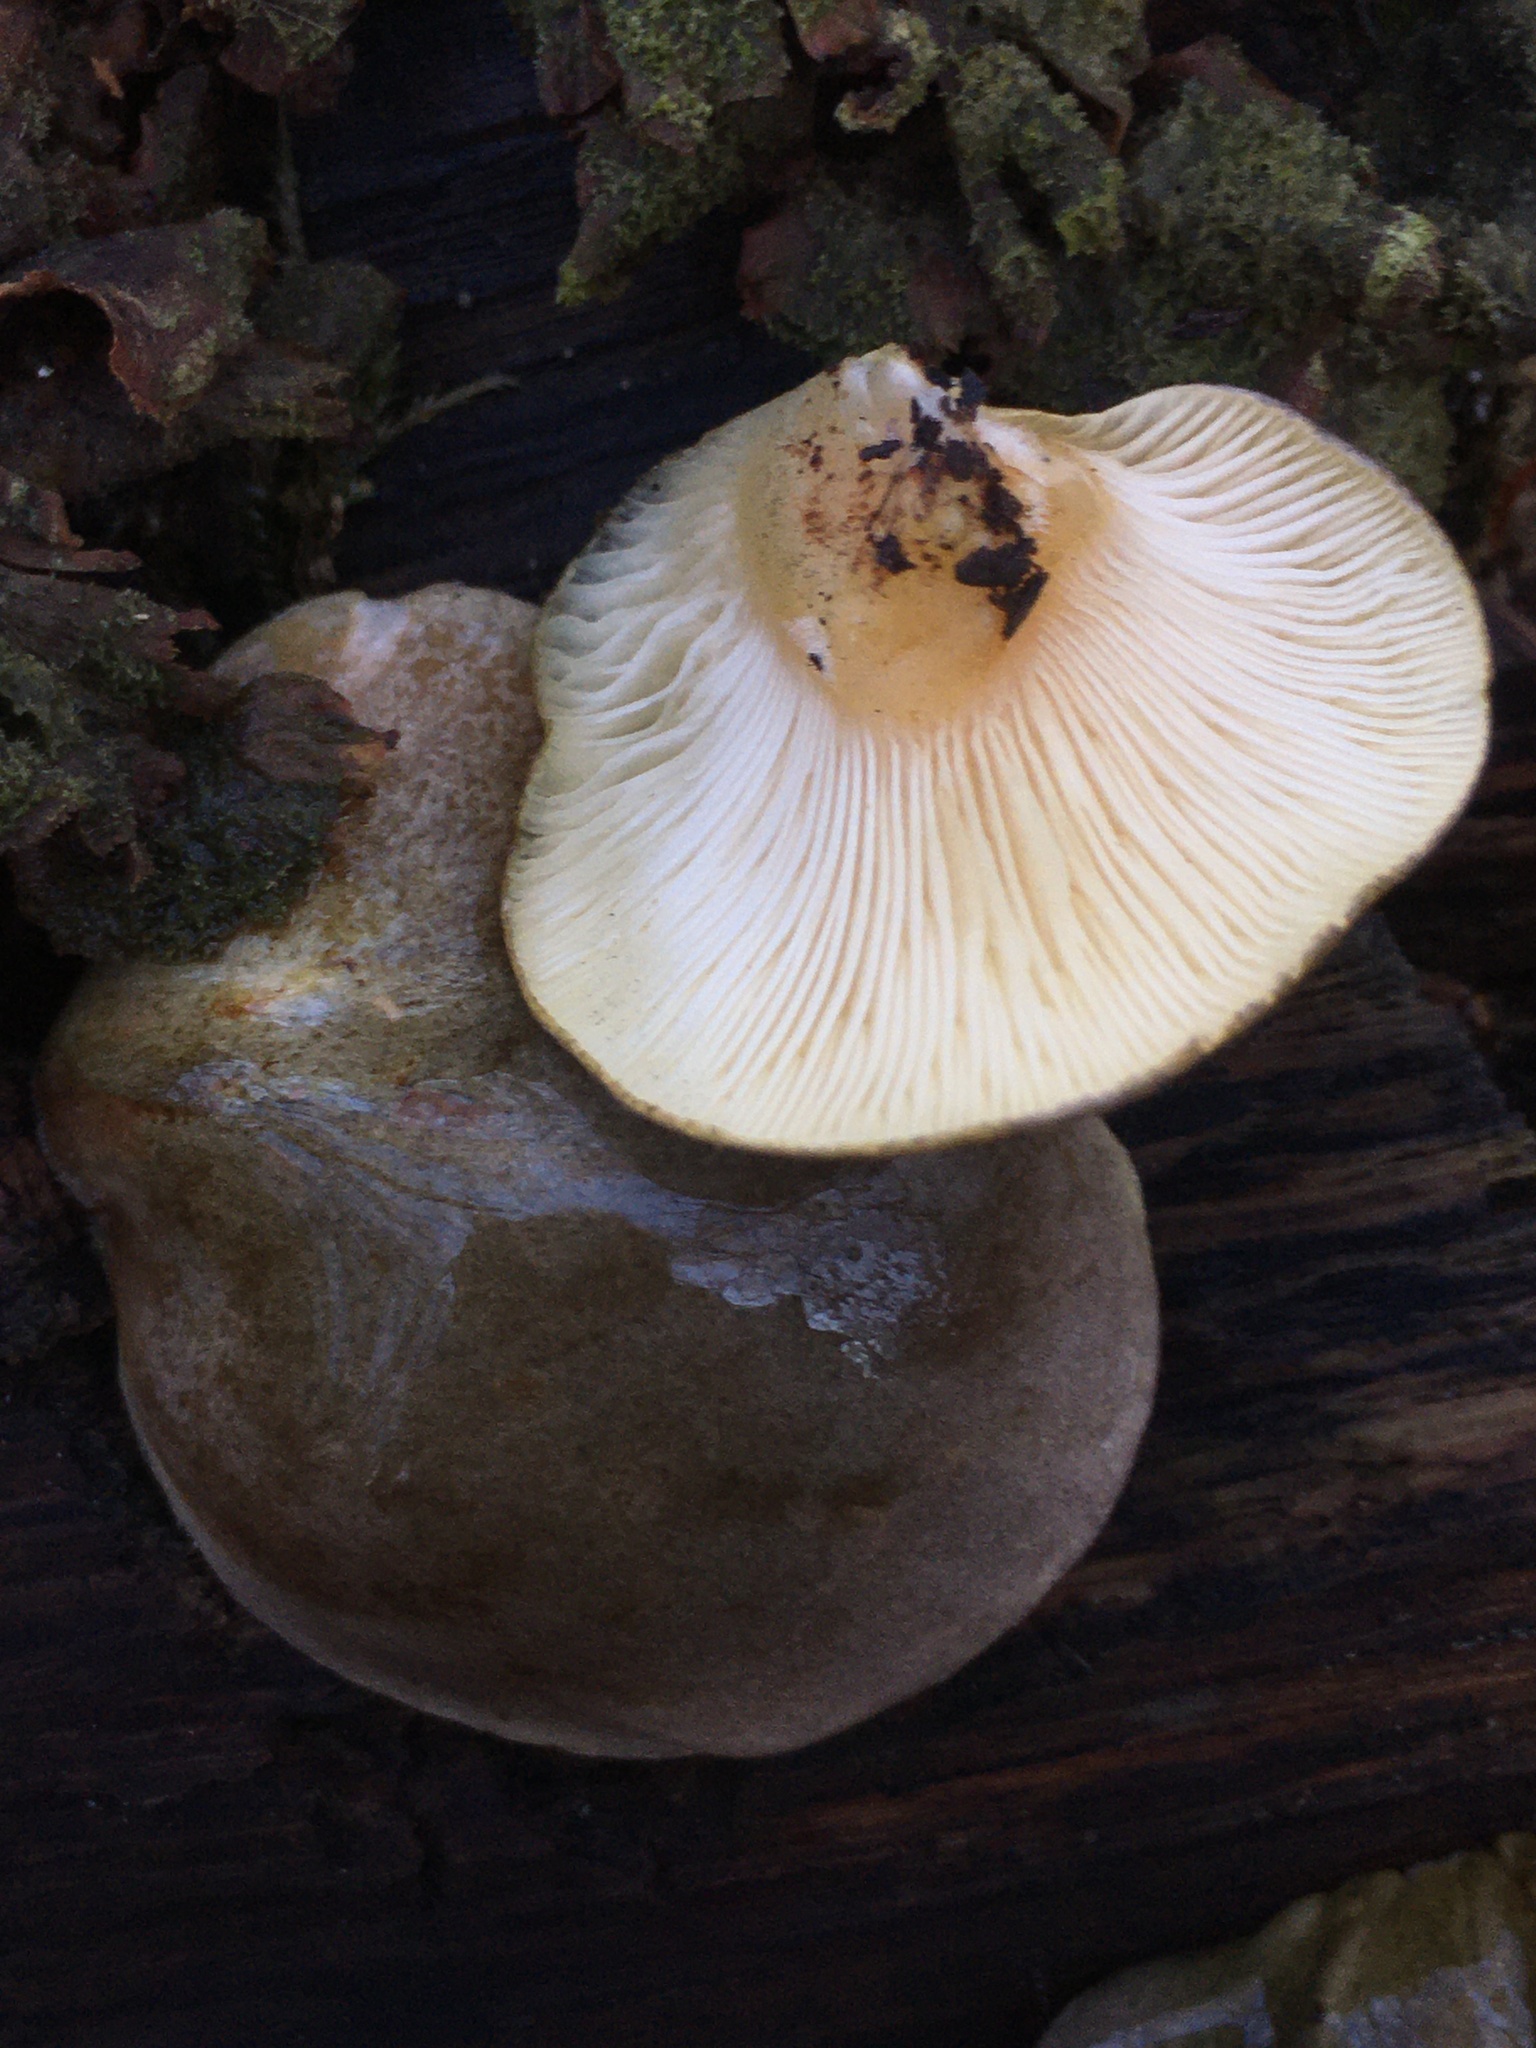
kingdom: Fungi
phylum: Basidiomycota
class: Agaricomycetes
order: Agaricales
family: Sarcomyxaceae
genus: Sarcomyxa
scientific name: Sarcomyxa serotina
